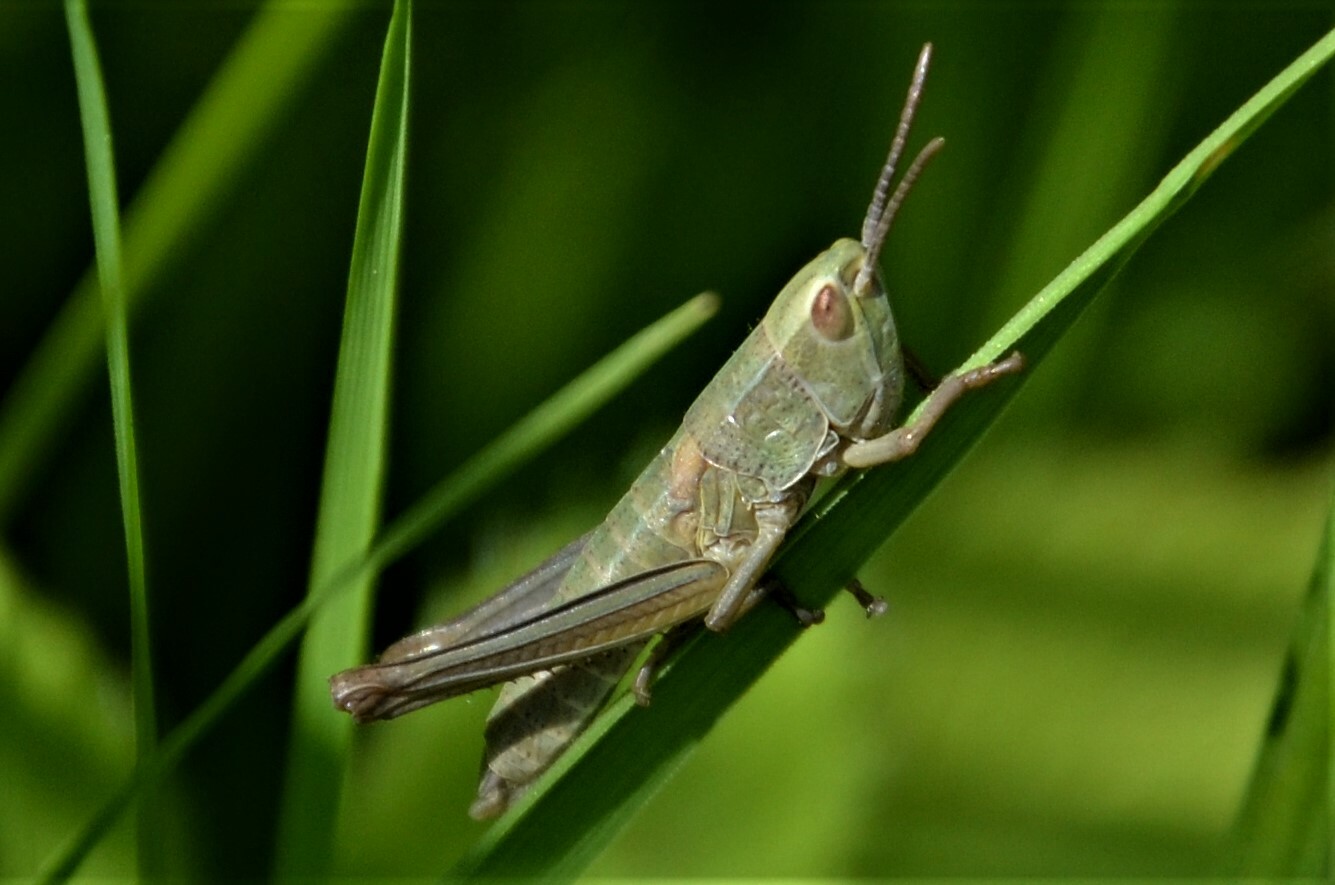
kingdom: Animalia
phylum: Arthropoda
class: Insecta
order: Orthoptera
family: Acrididae
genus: Euthystira
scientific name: Euthystira brachyptera
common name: Small gold grasshopper
